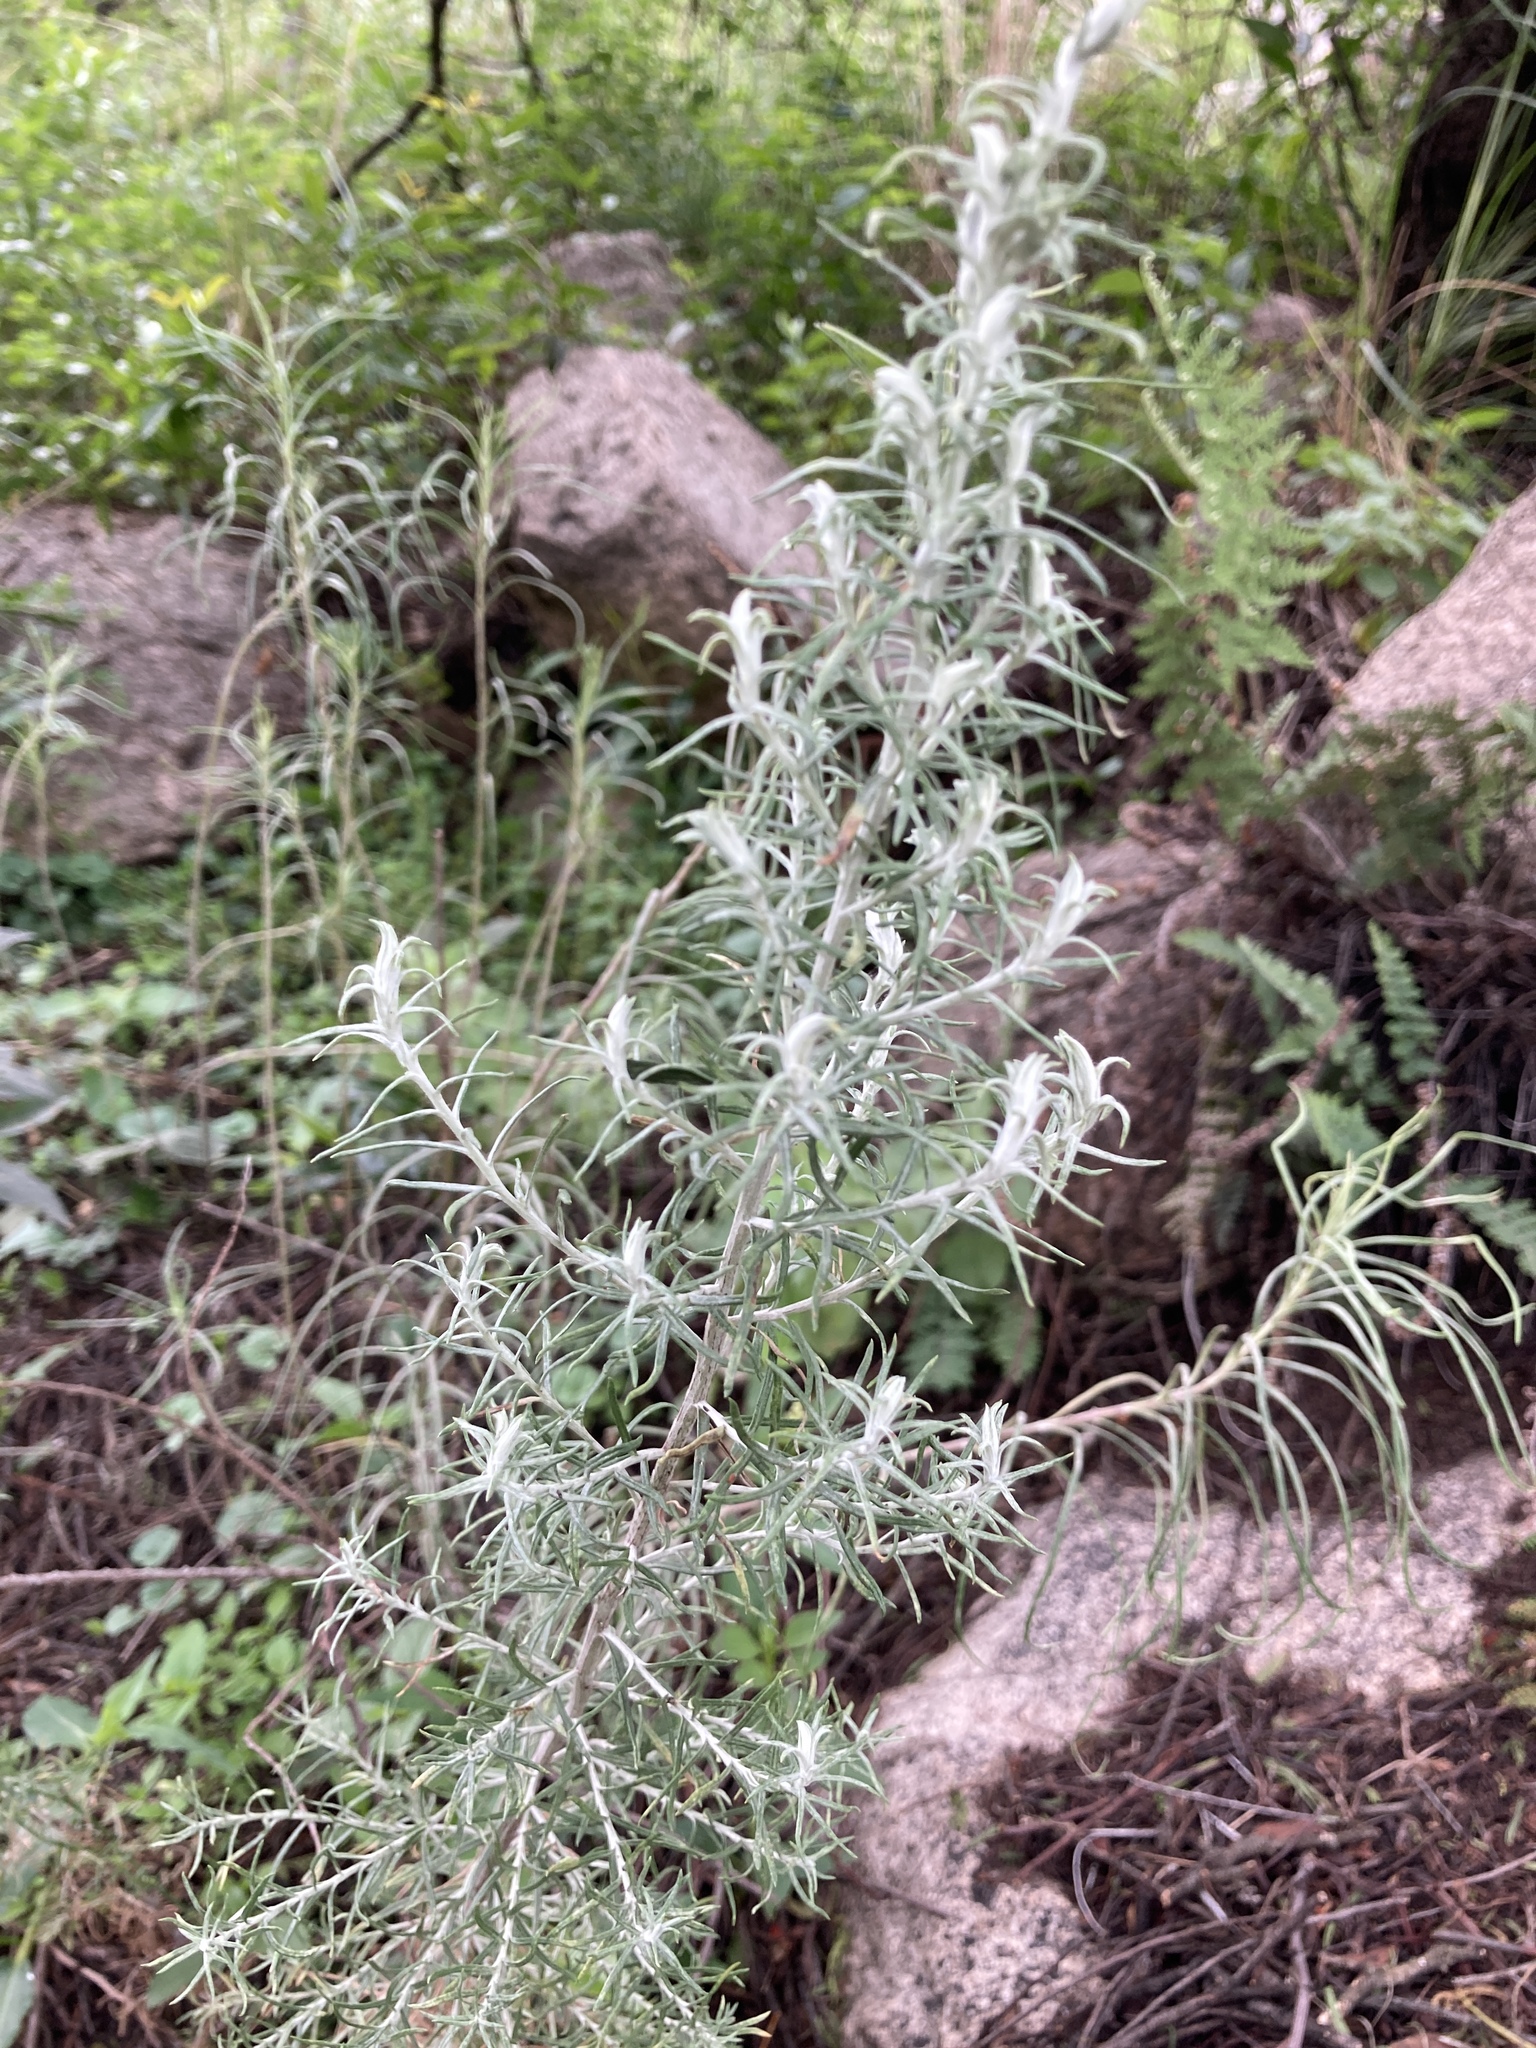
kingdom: Plantae
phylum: Tracheophyta
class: Magnoliopsida
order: Asterales
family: Asteraceae
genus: Baccharis
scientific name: Baccharis artemisioides
